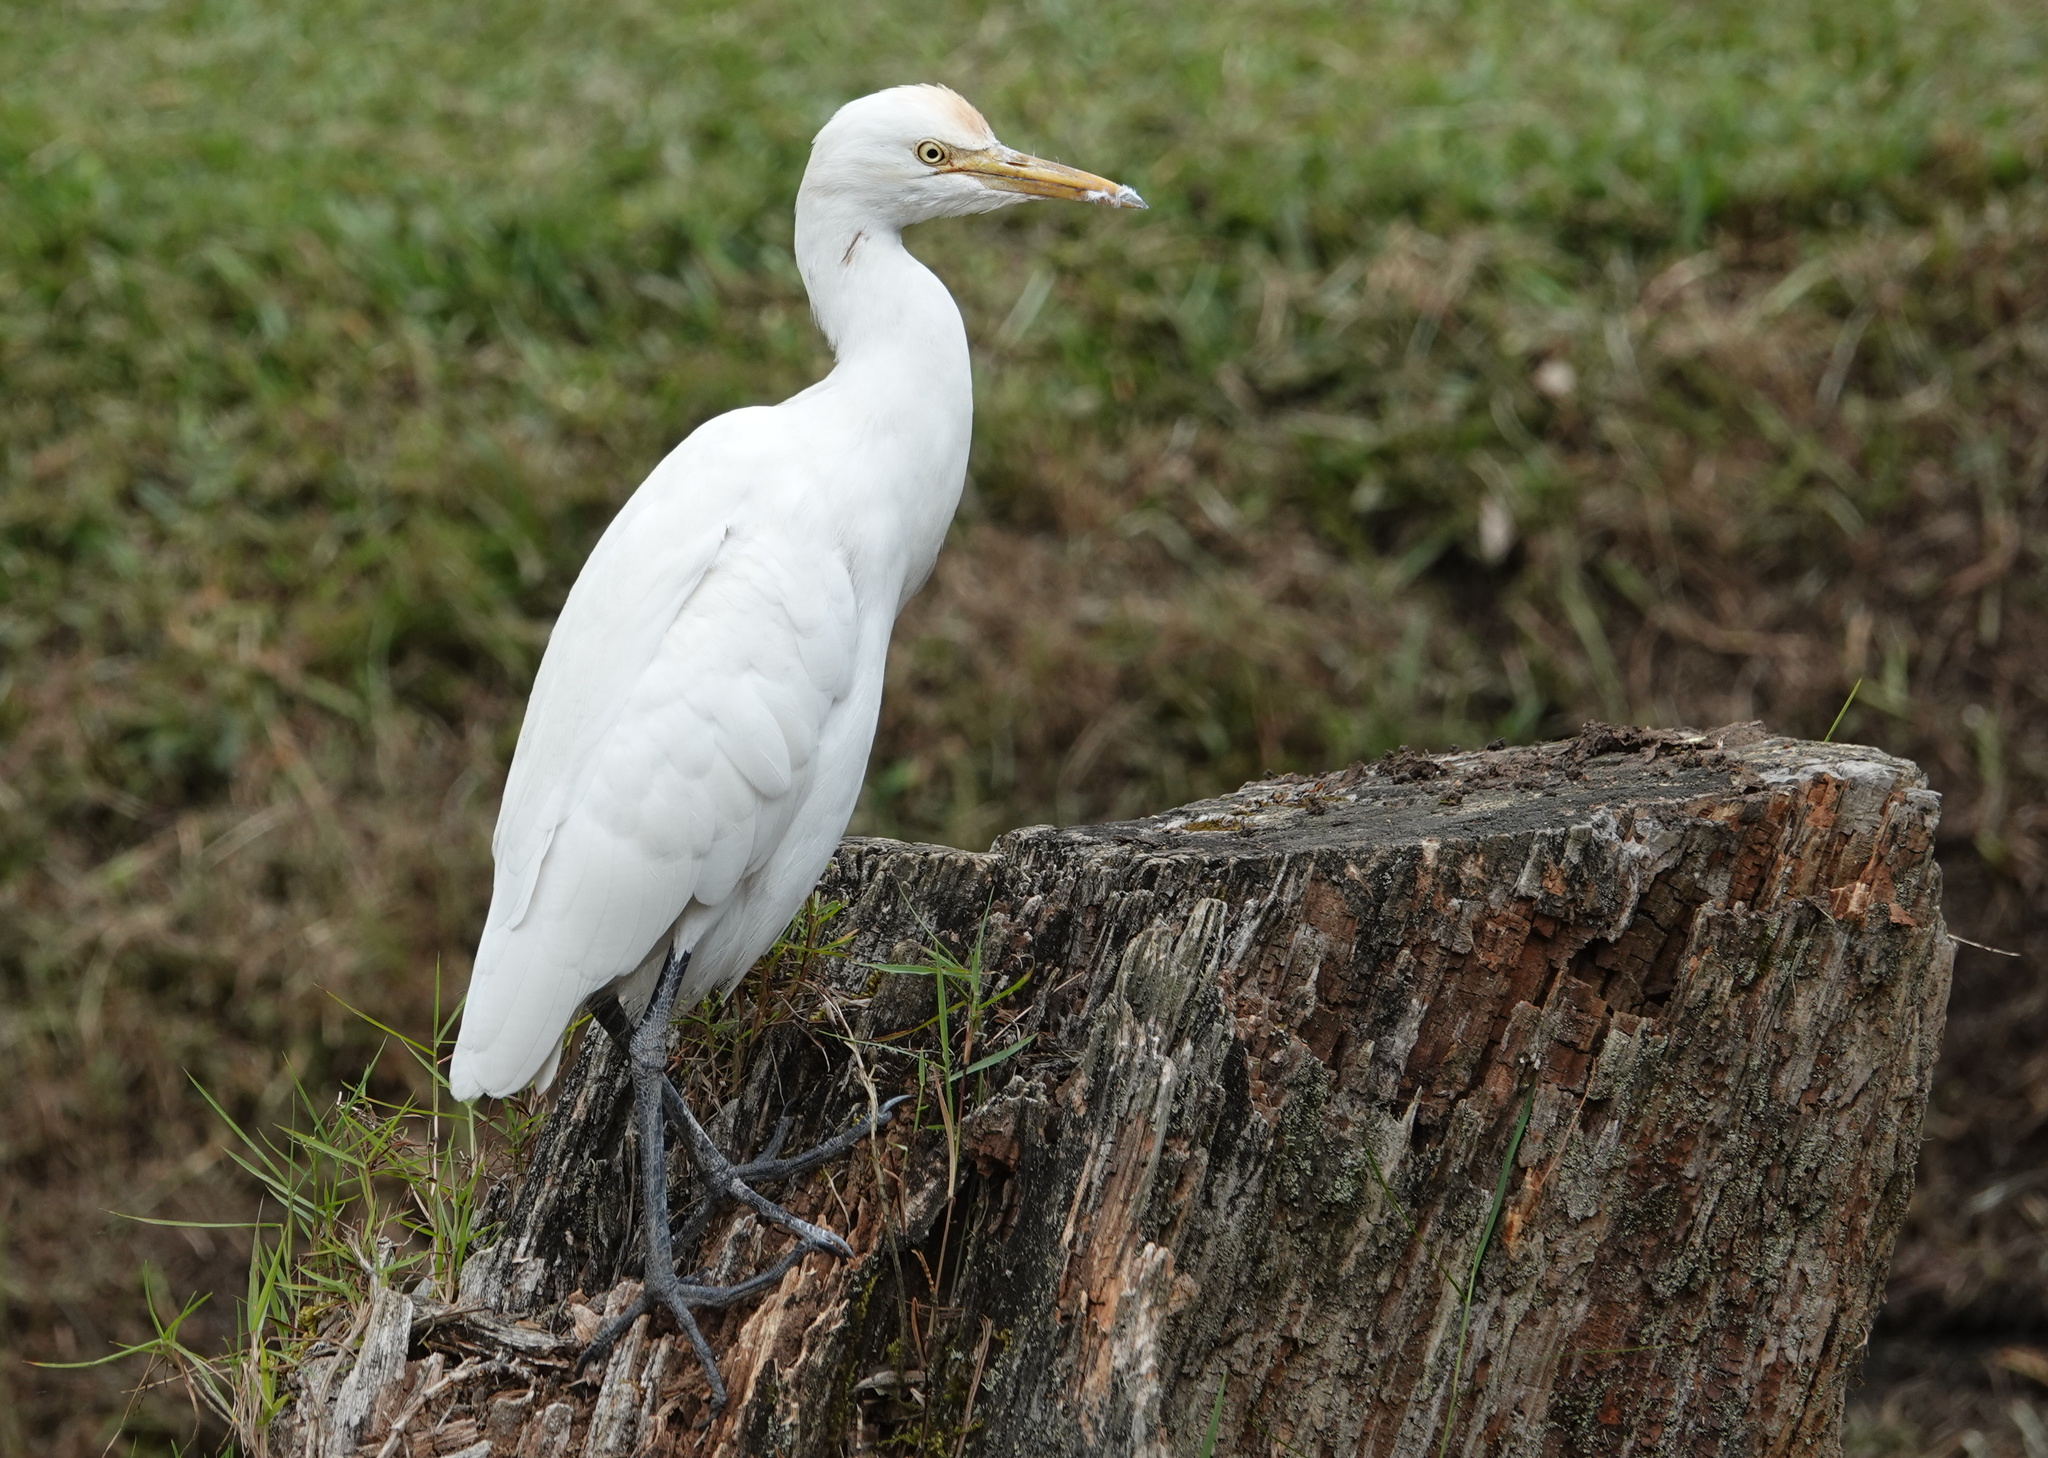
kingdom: Animalia
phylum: Chordata
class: Aves
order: Pelecaniformes
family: Ardeidae
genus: Bubulcus
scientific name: Bubulcus coromandus
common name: Eastern cattle egret
